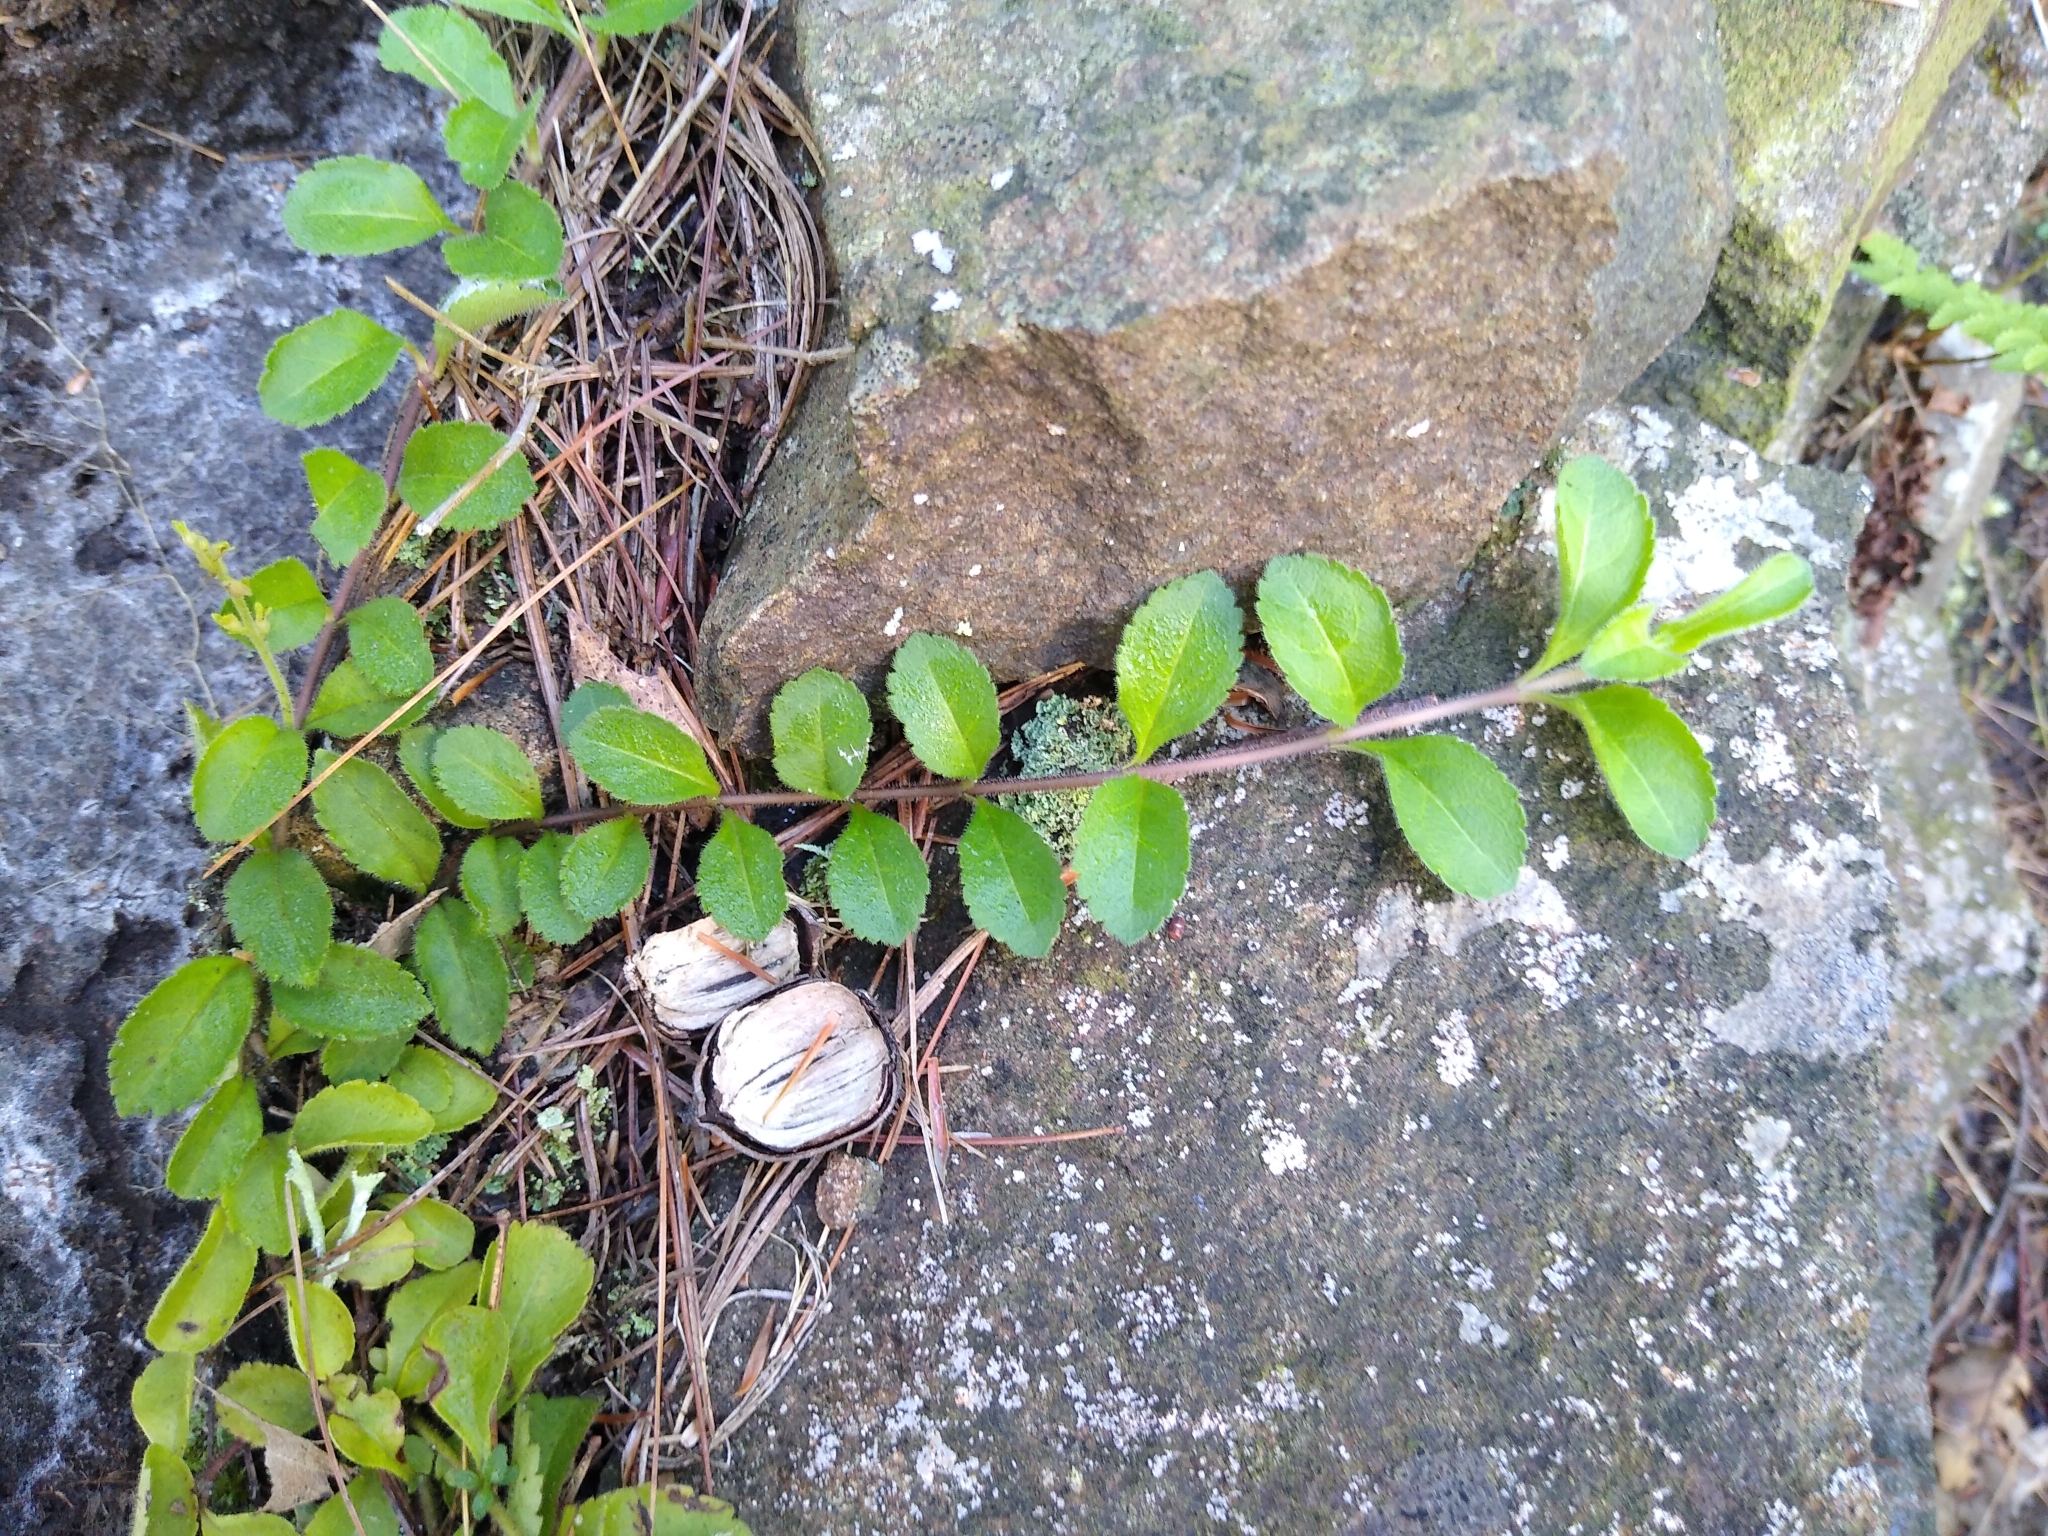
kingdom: Plantae
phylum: Tracheophyta
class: Magnoliopsida
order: Lamiales
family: Plantaginaceae
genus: Veronica
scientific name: Veronica officinalis
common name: Common speedwell
